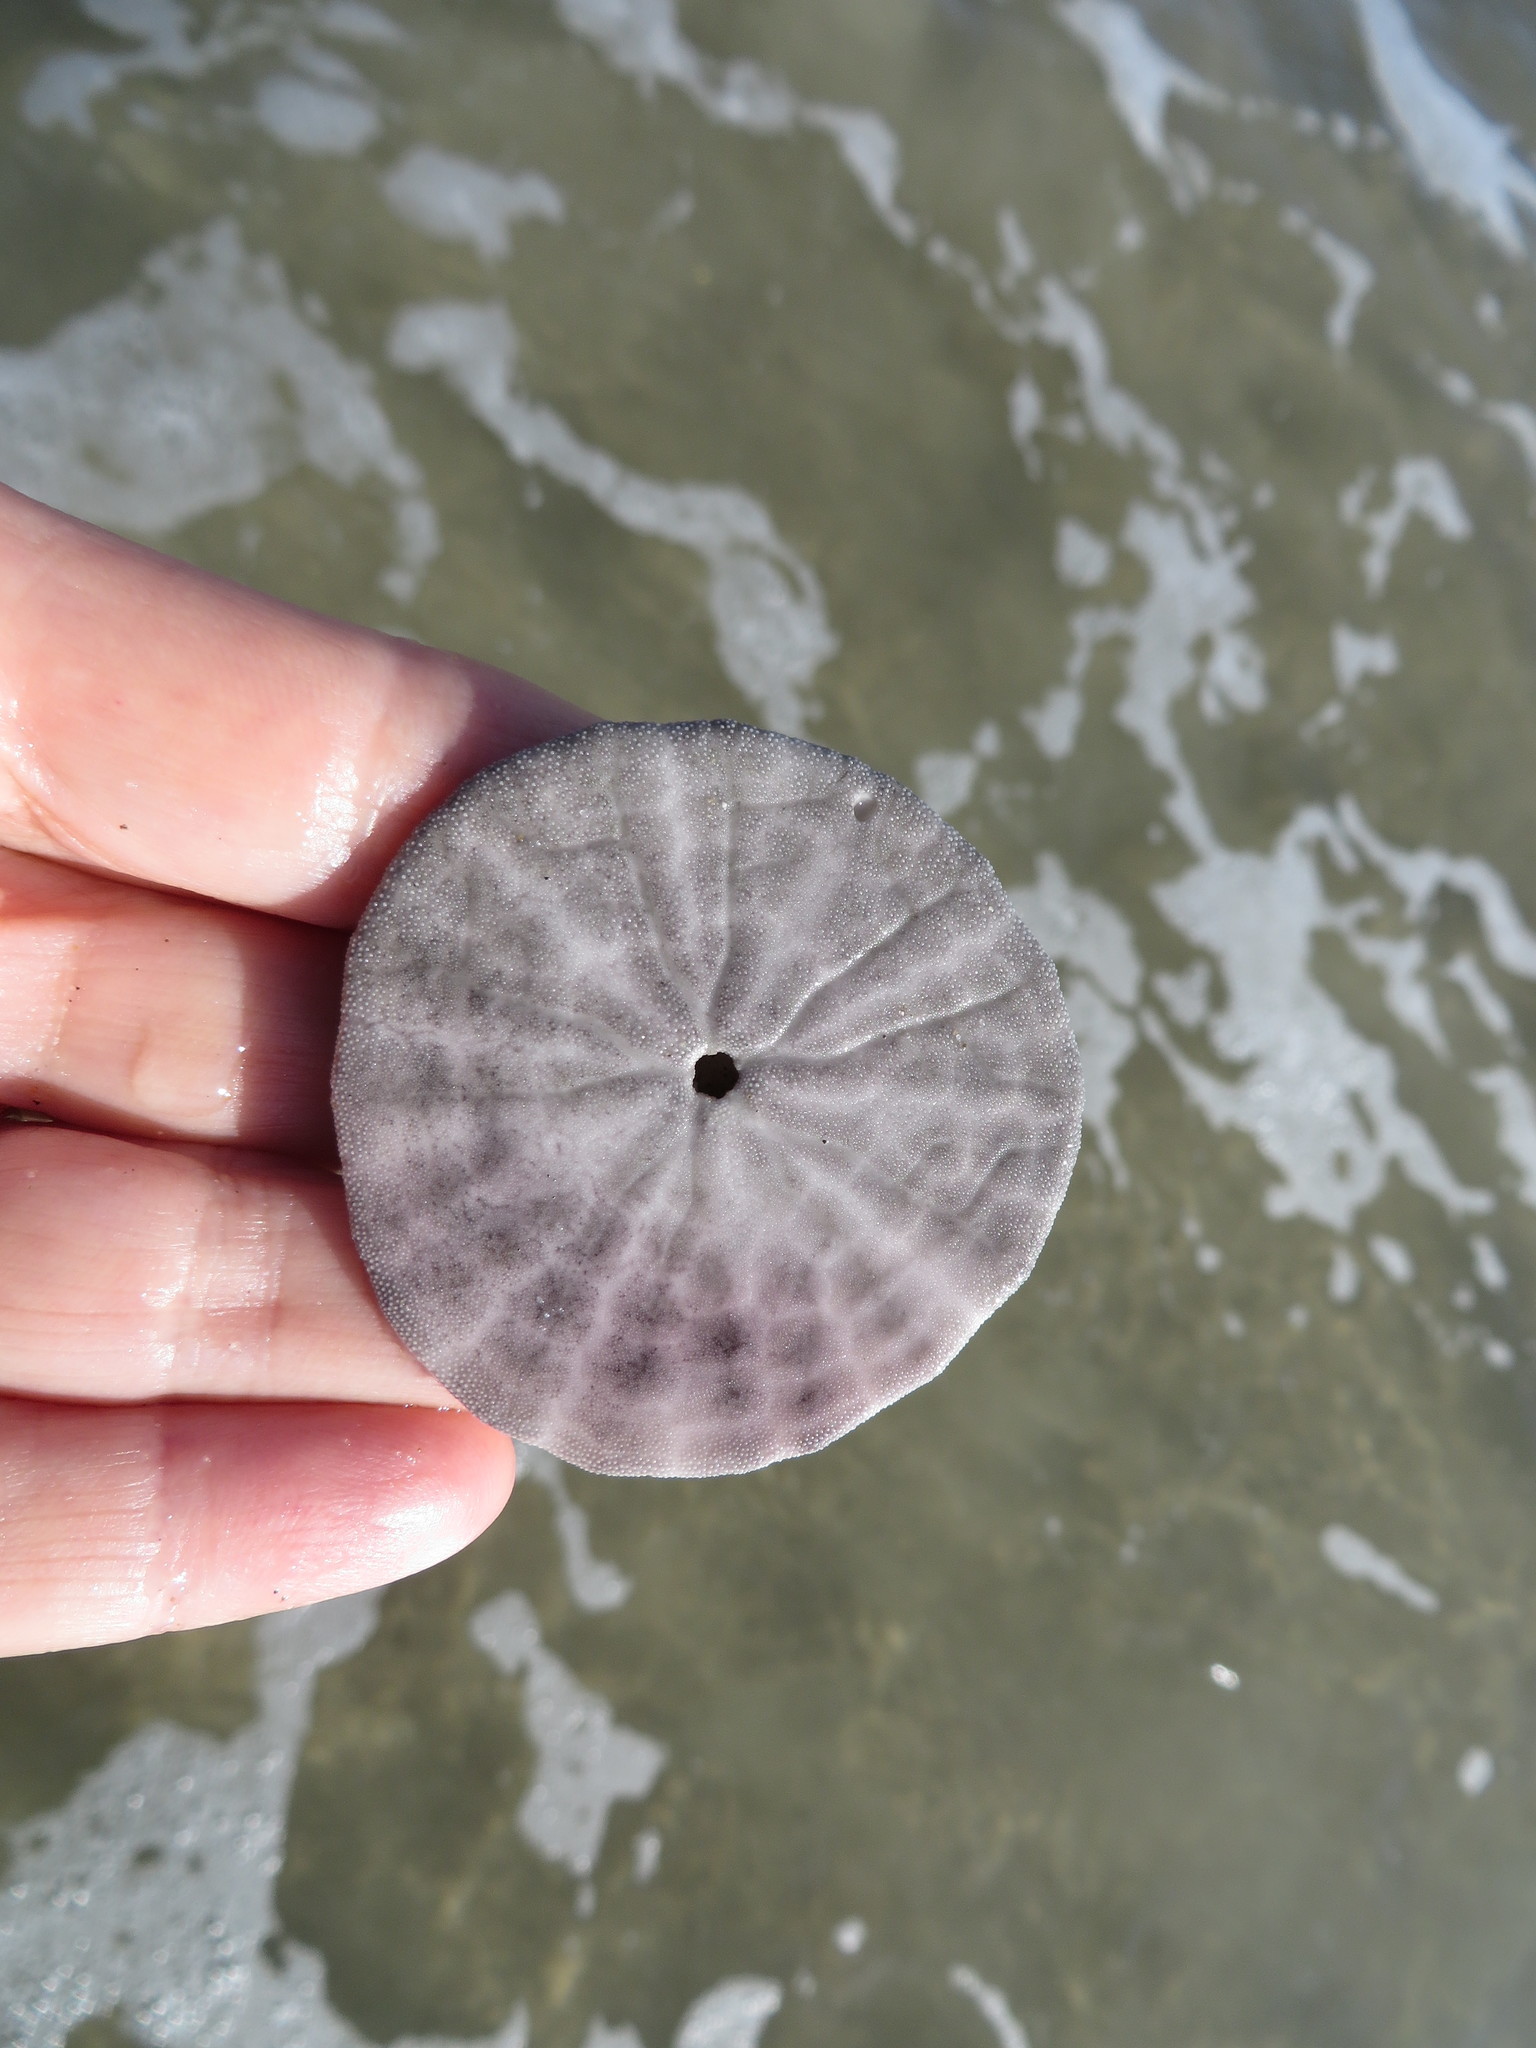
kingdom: Animalia
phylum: Echinodermata
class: Echinoidea
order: Echinolampadacea
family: Dendrasteridae
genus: Dendraster
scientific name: Dendraster excentricus
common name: Eccentric sand dollar sea urchin
